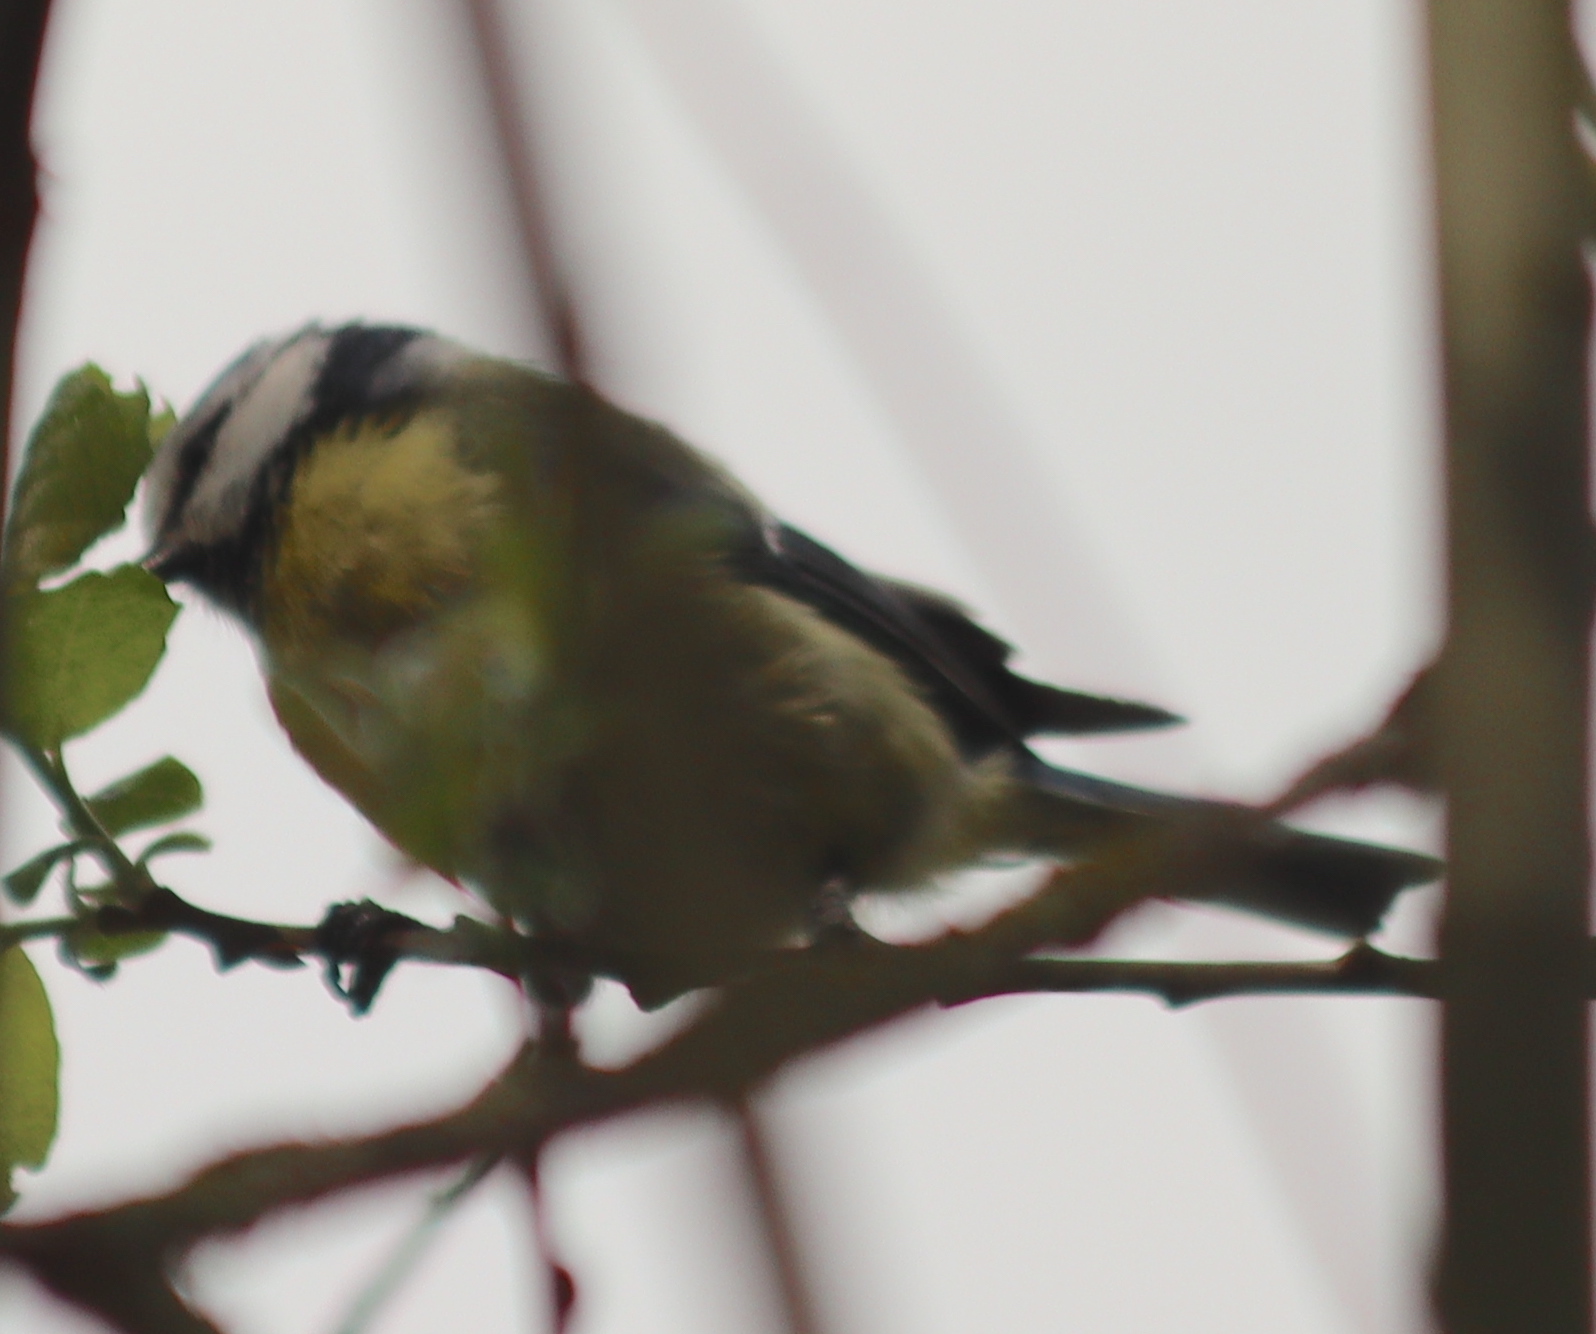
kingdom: Animalia
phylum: Chordata
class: Aves
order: Passeriformes
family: Paridae
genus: Cyanistes
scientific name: Cyanistes caeruleus
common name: Eurasian blue tit
